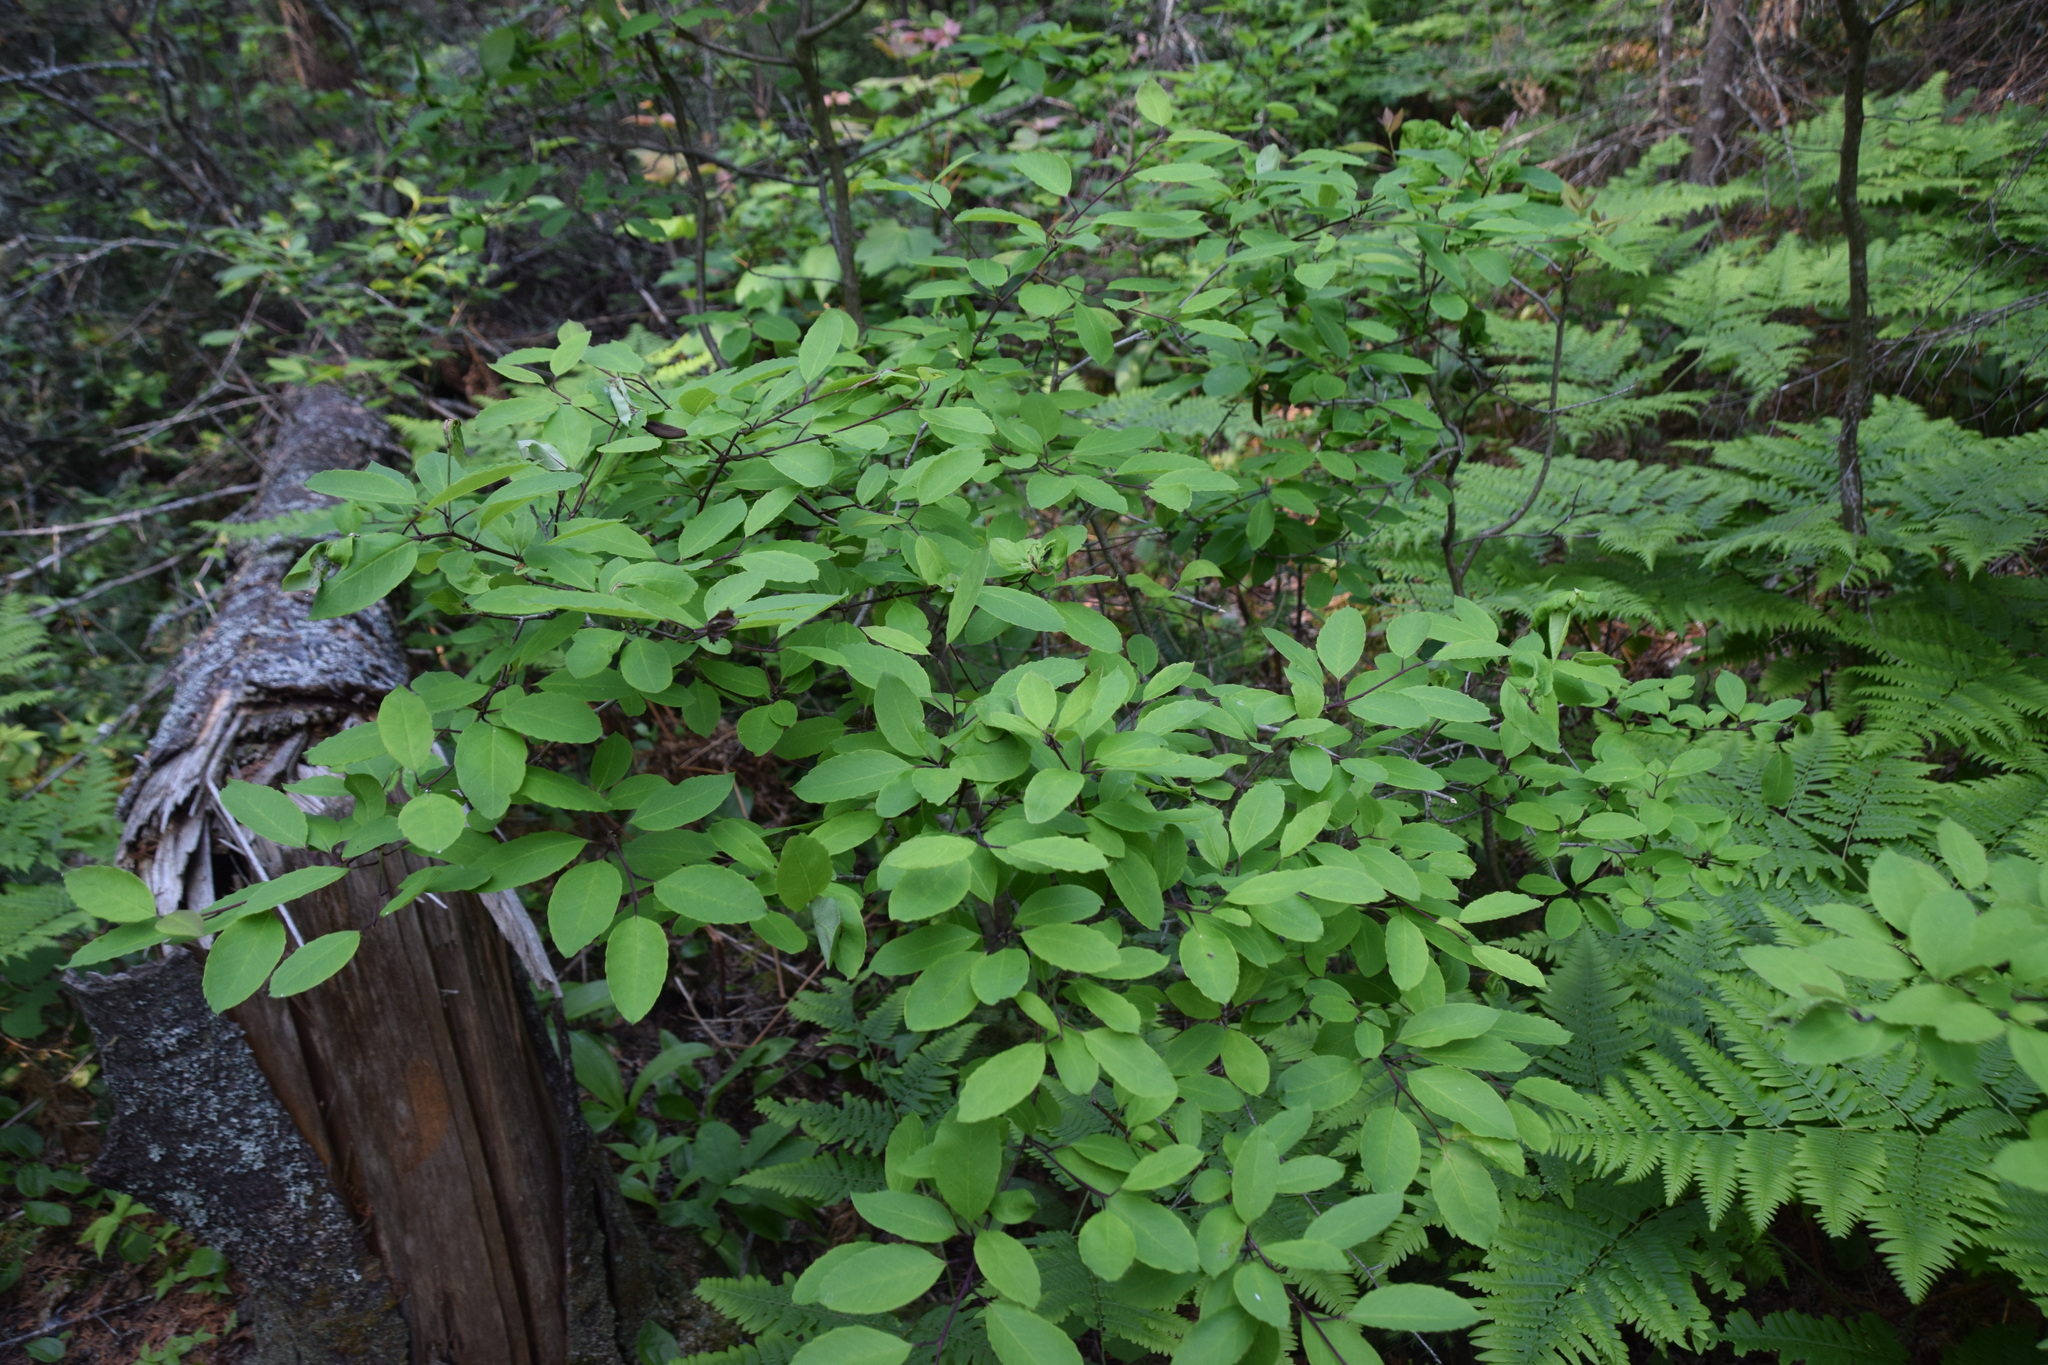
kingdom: Plantae
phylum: Tracheophyta
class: Magnoliopsida
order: Aquifoliales
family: Aquifoliaceae
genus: Ilex
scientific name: Ilex mucronata
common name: Catberry
